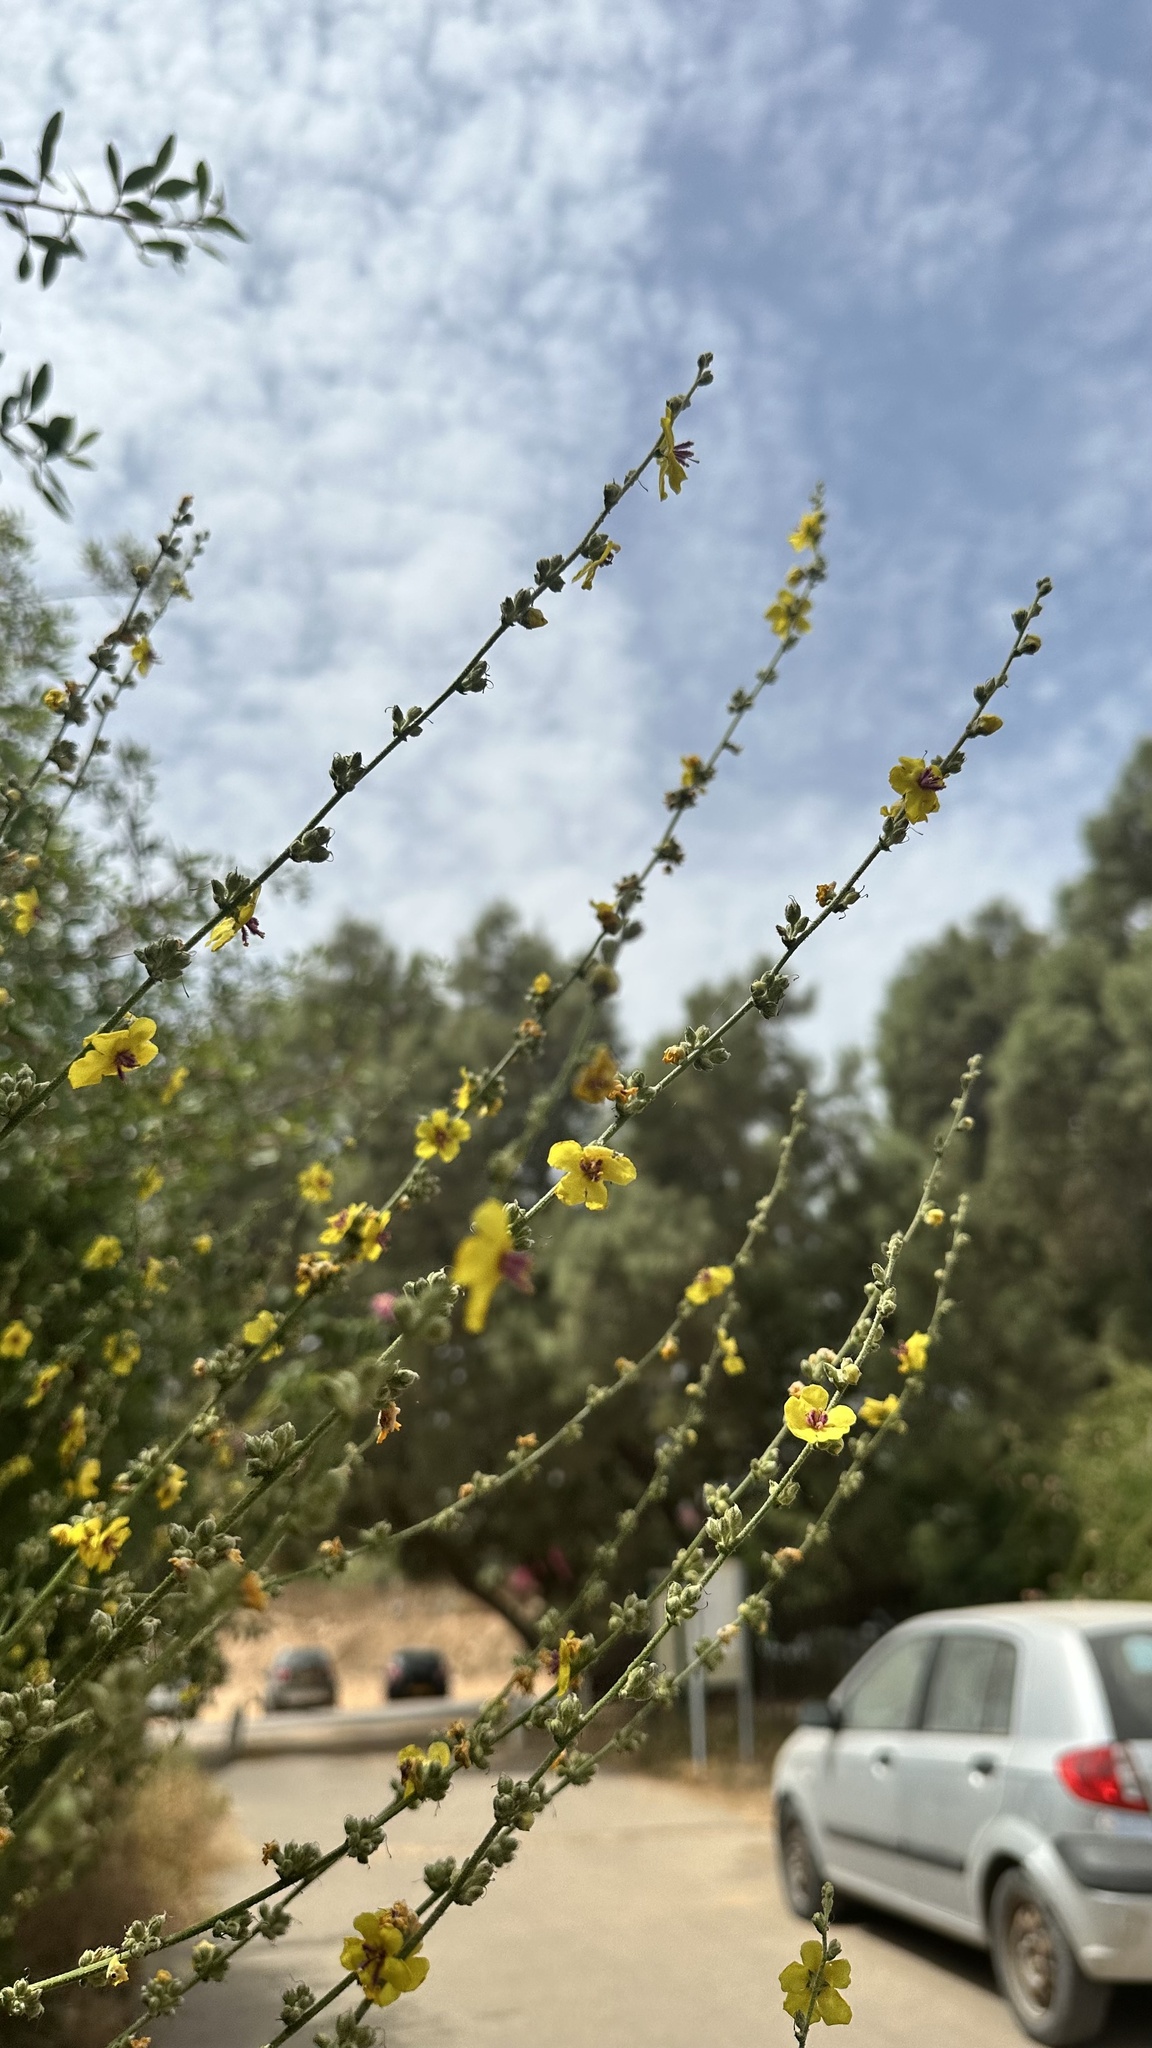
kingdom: Plantae
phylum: Tracheophyta
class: Magnoliopsida
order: Lamiales
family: Scrophulariaceae
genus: Verbascum
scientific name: Verbascum sinuatum
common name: Wavyleaf mullein
